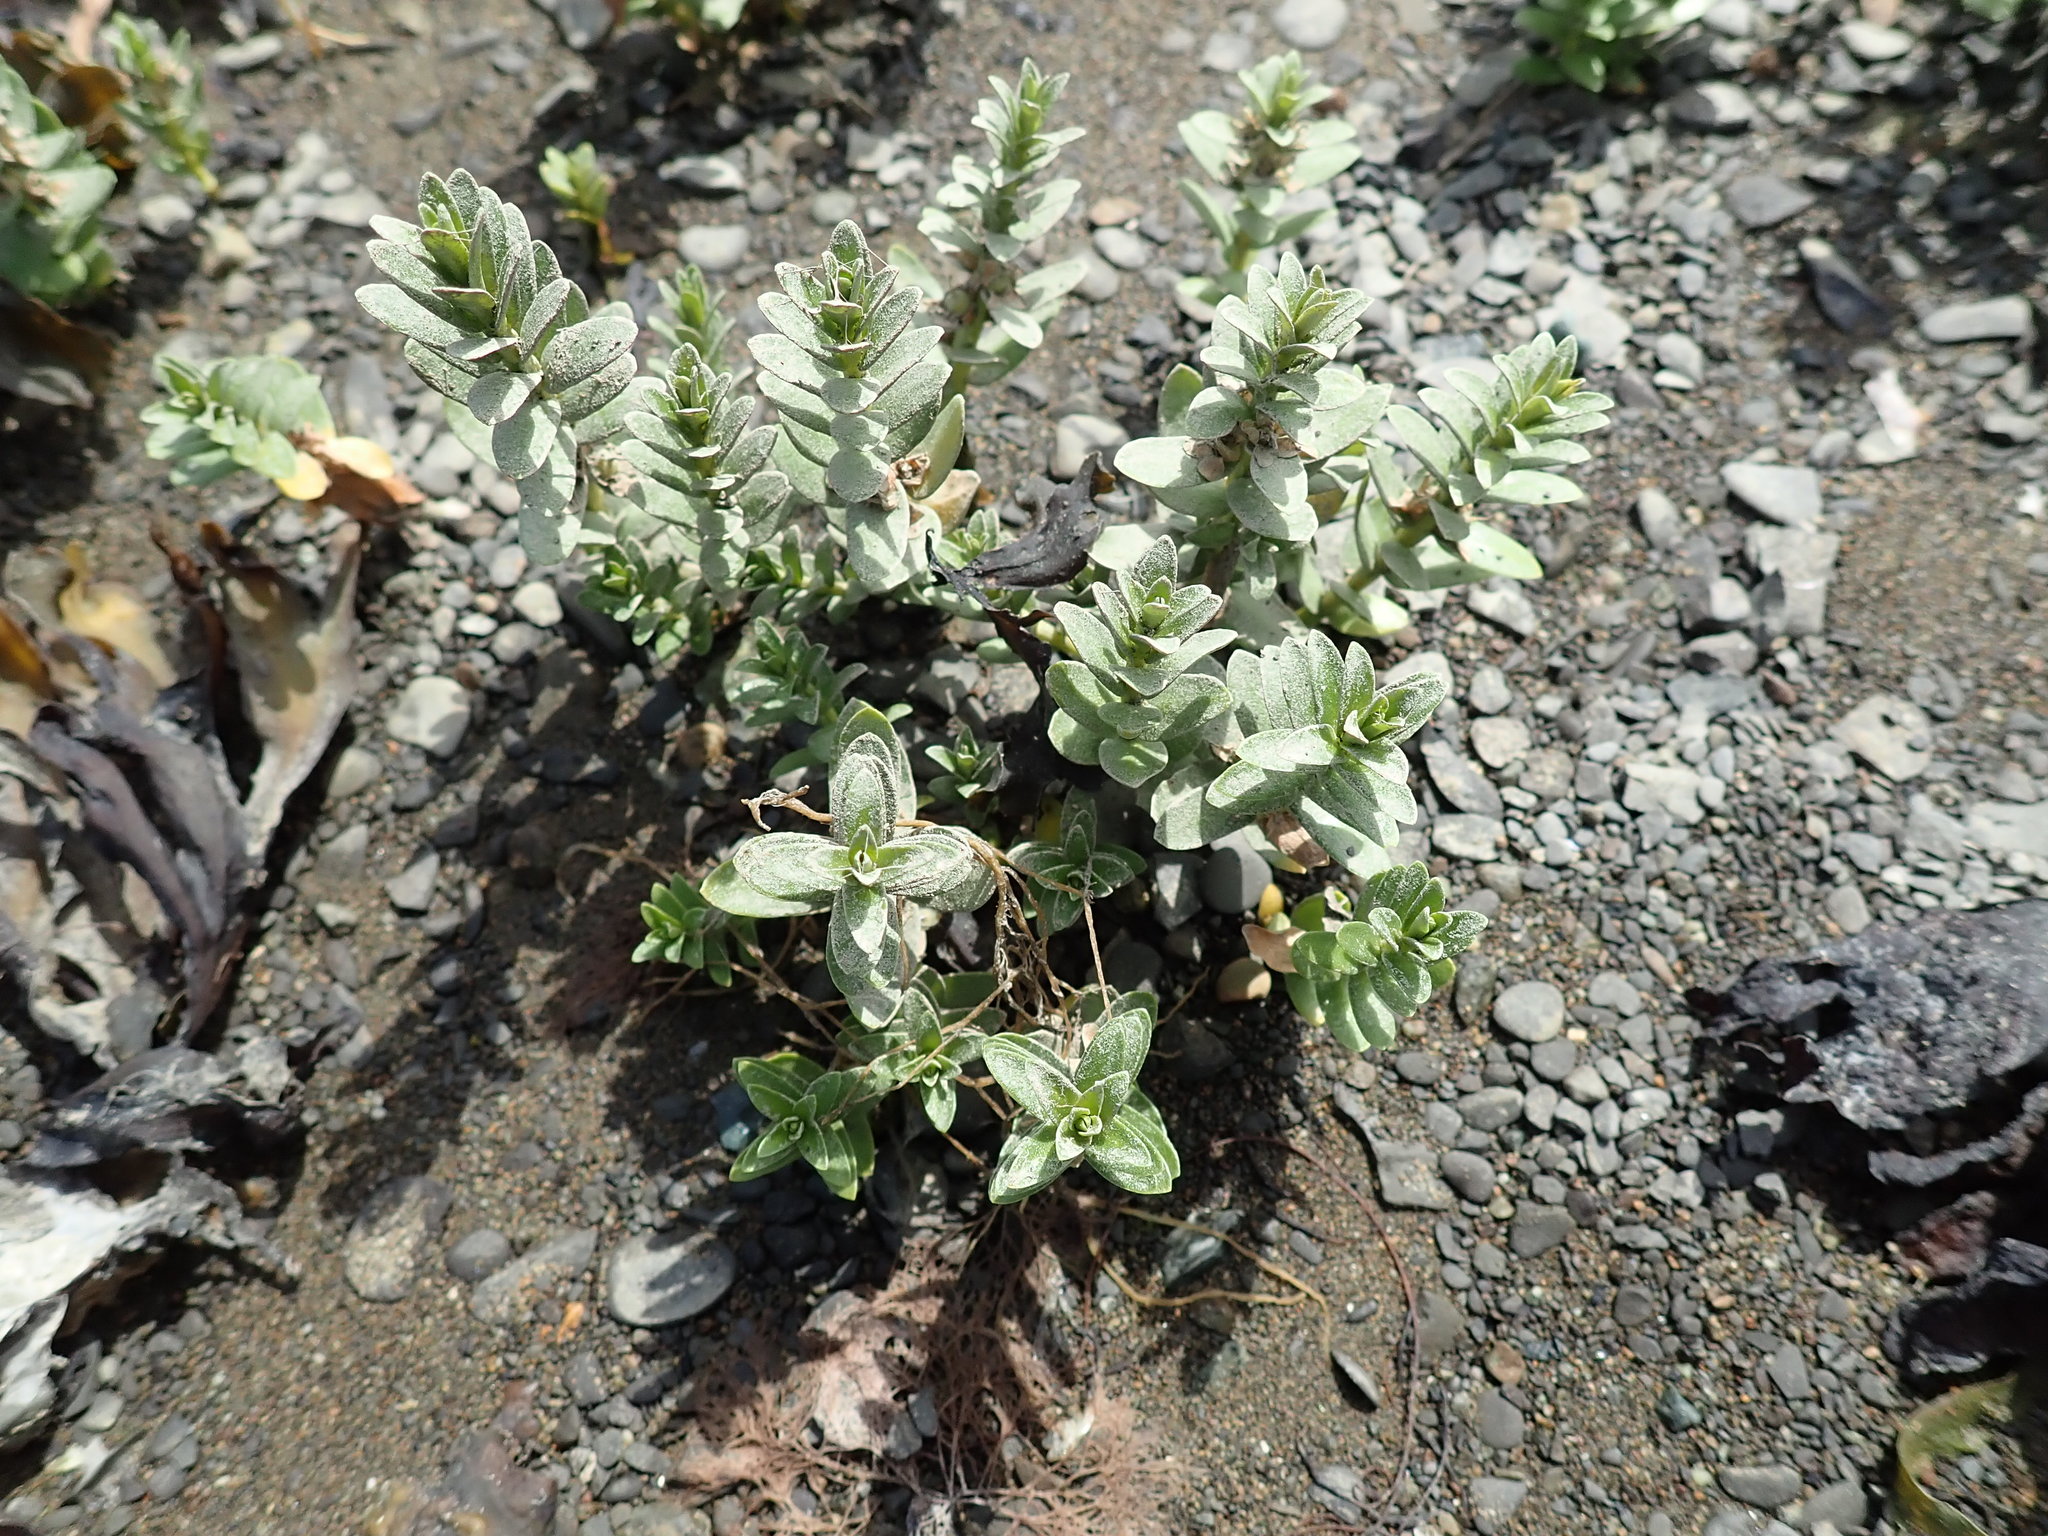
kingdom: Plantae
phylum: Tracheophyta
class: Magnoliopsida
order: Ericales
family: Primulaceae
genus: Lysimachia
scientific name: Lysimachia maritima
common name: Sea milkwort
